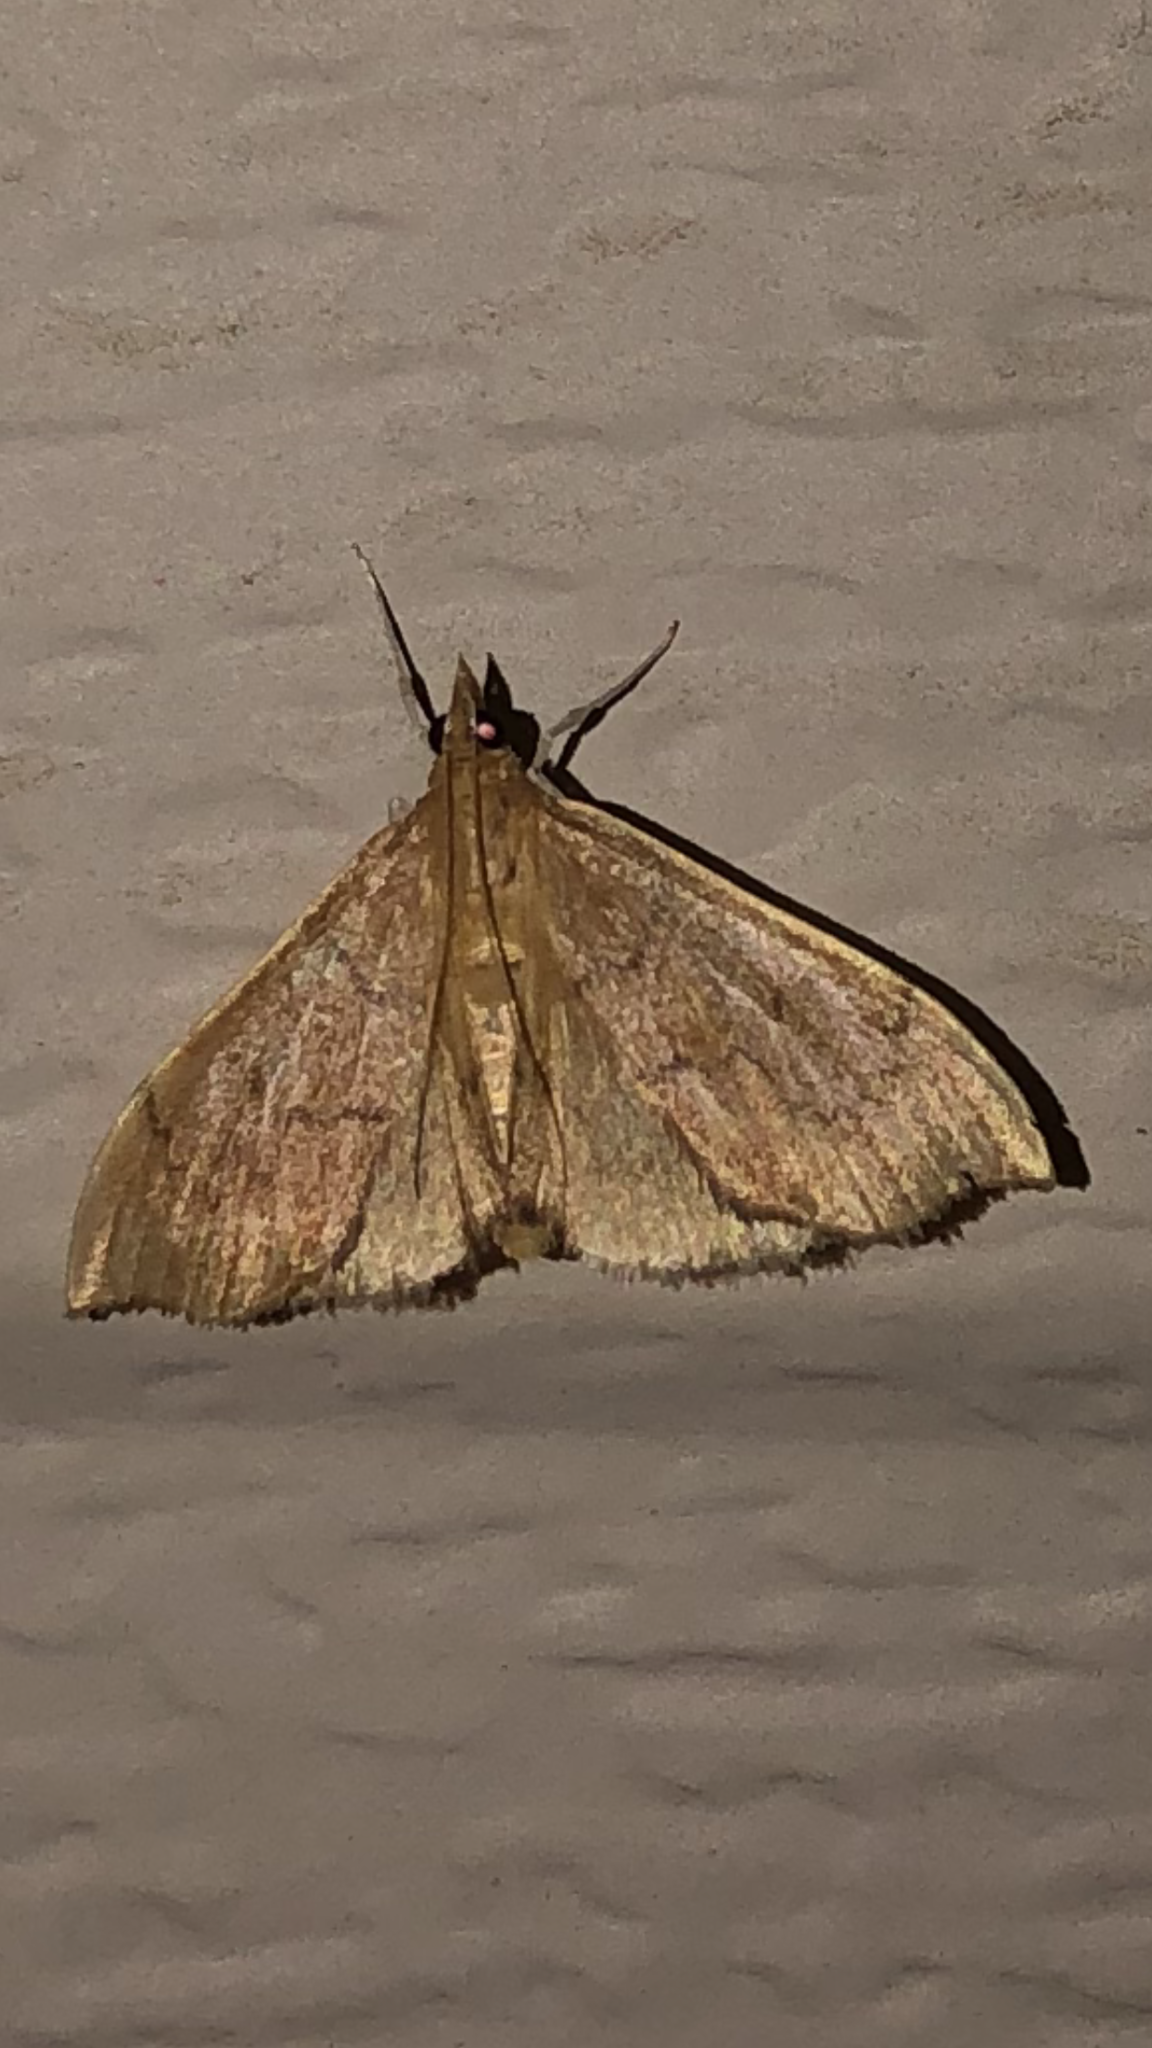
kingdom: Animalia
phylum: Arthropoda
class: Insecta
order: Lepidoptera
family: Crambidae
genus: Sericoplaga
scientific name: Sericoplaga externalis
